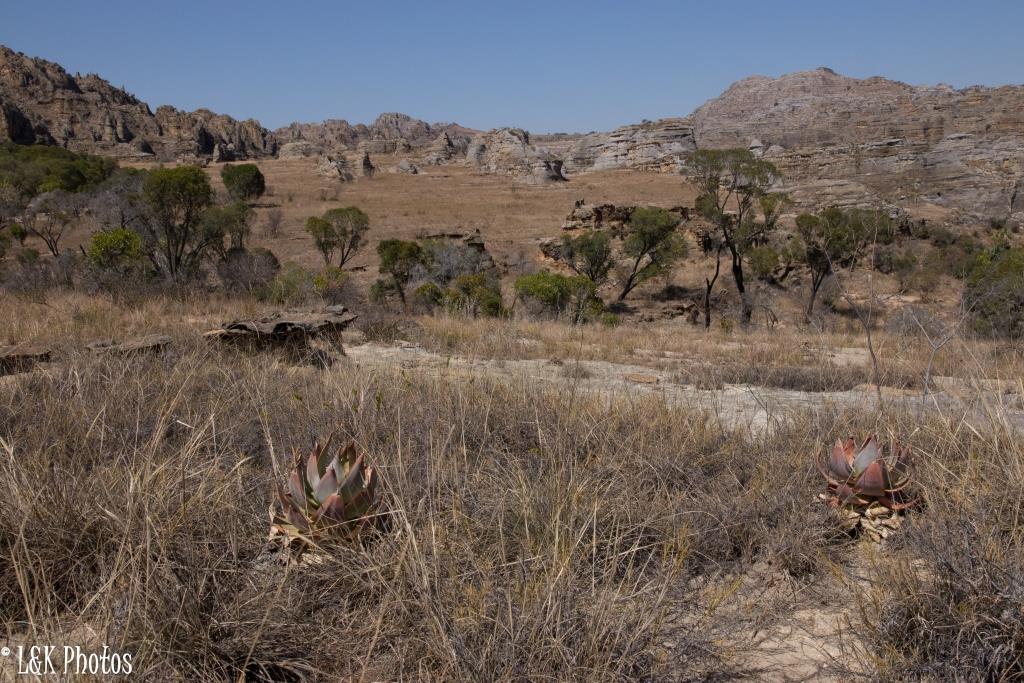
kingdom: Plantae
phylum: Tracheophyta
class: Liliopsida
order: Asparagales
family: Asphodelaceae
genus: Aloe
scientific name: Aloe imalotensis
